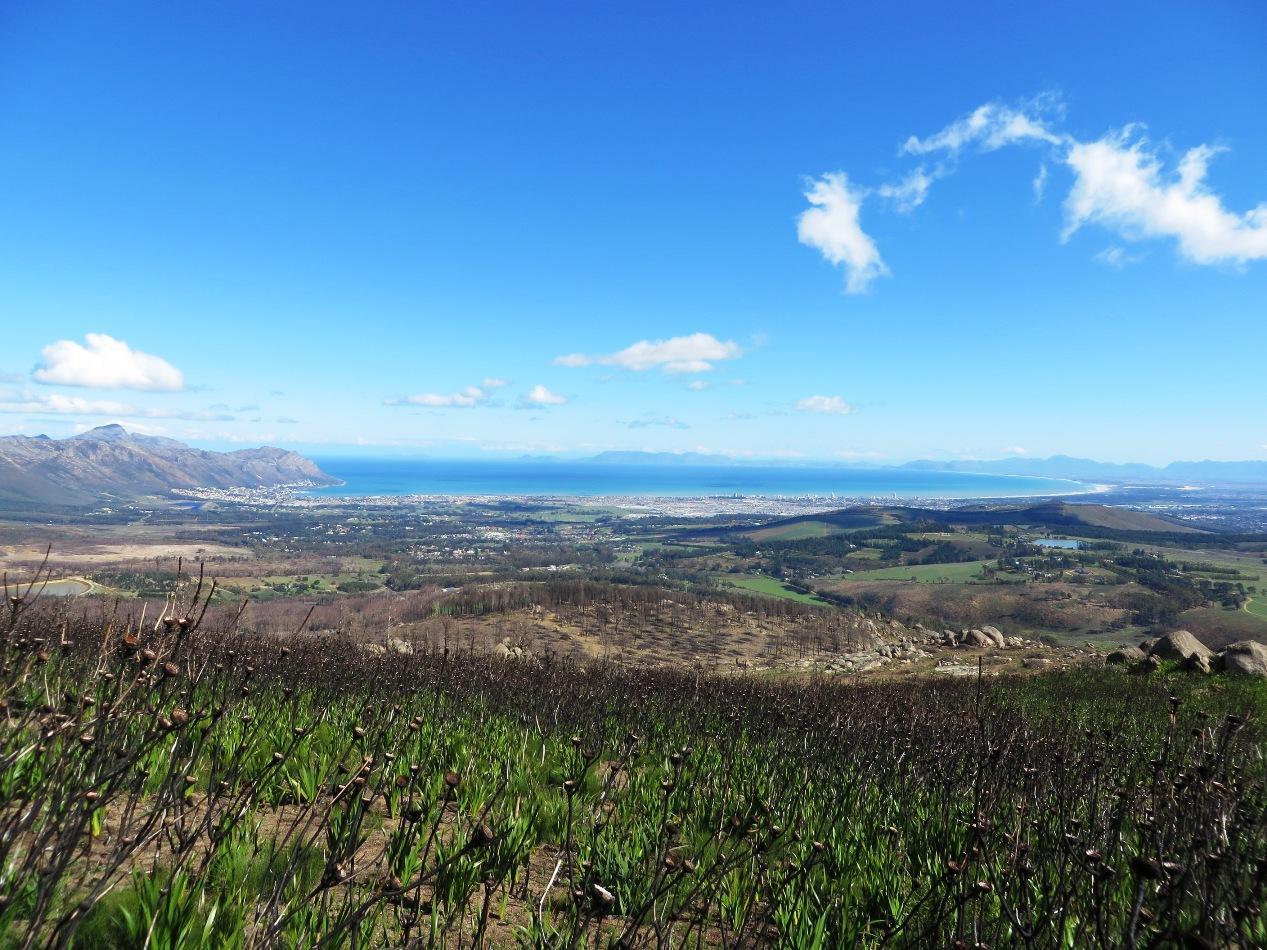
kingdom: Plantae
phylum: Tracheophyta
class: Liliopsida
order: Asparagales
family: Iridaceae
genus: Watsonia
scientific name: Watsonia borbonica
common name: Bugle-lily
